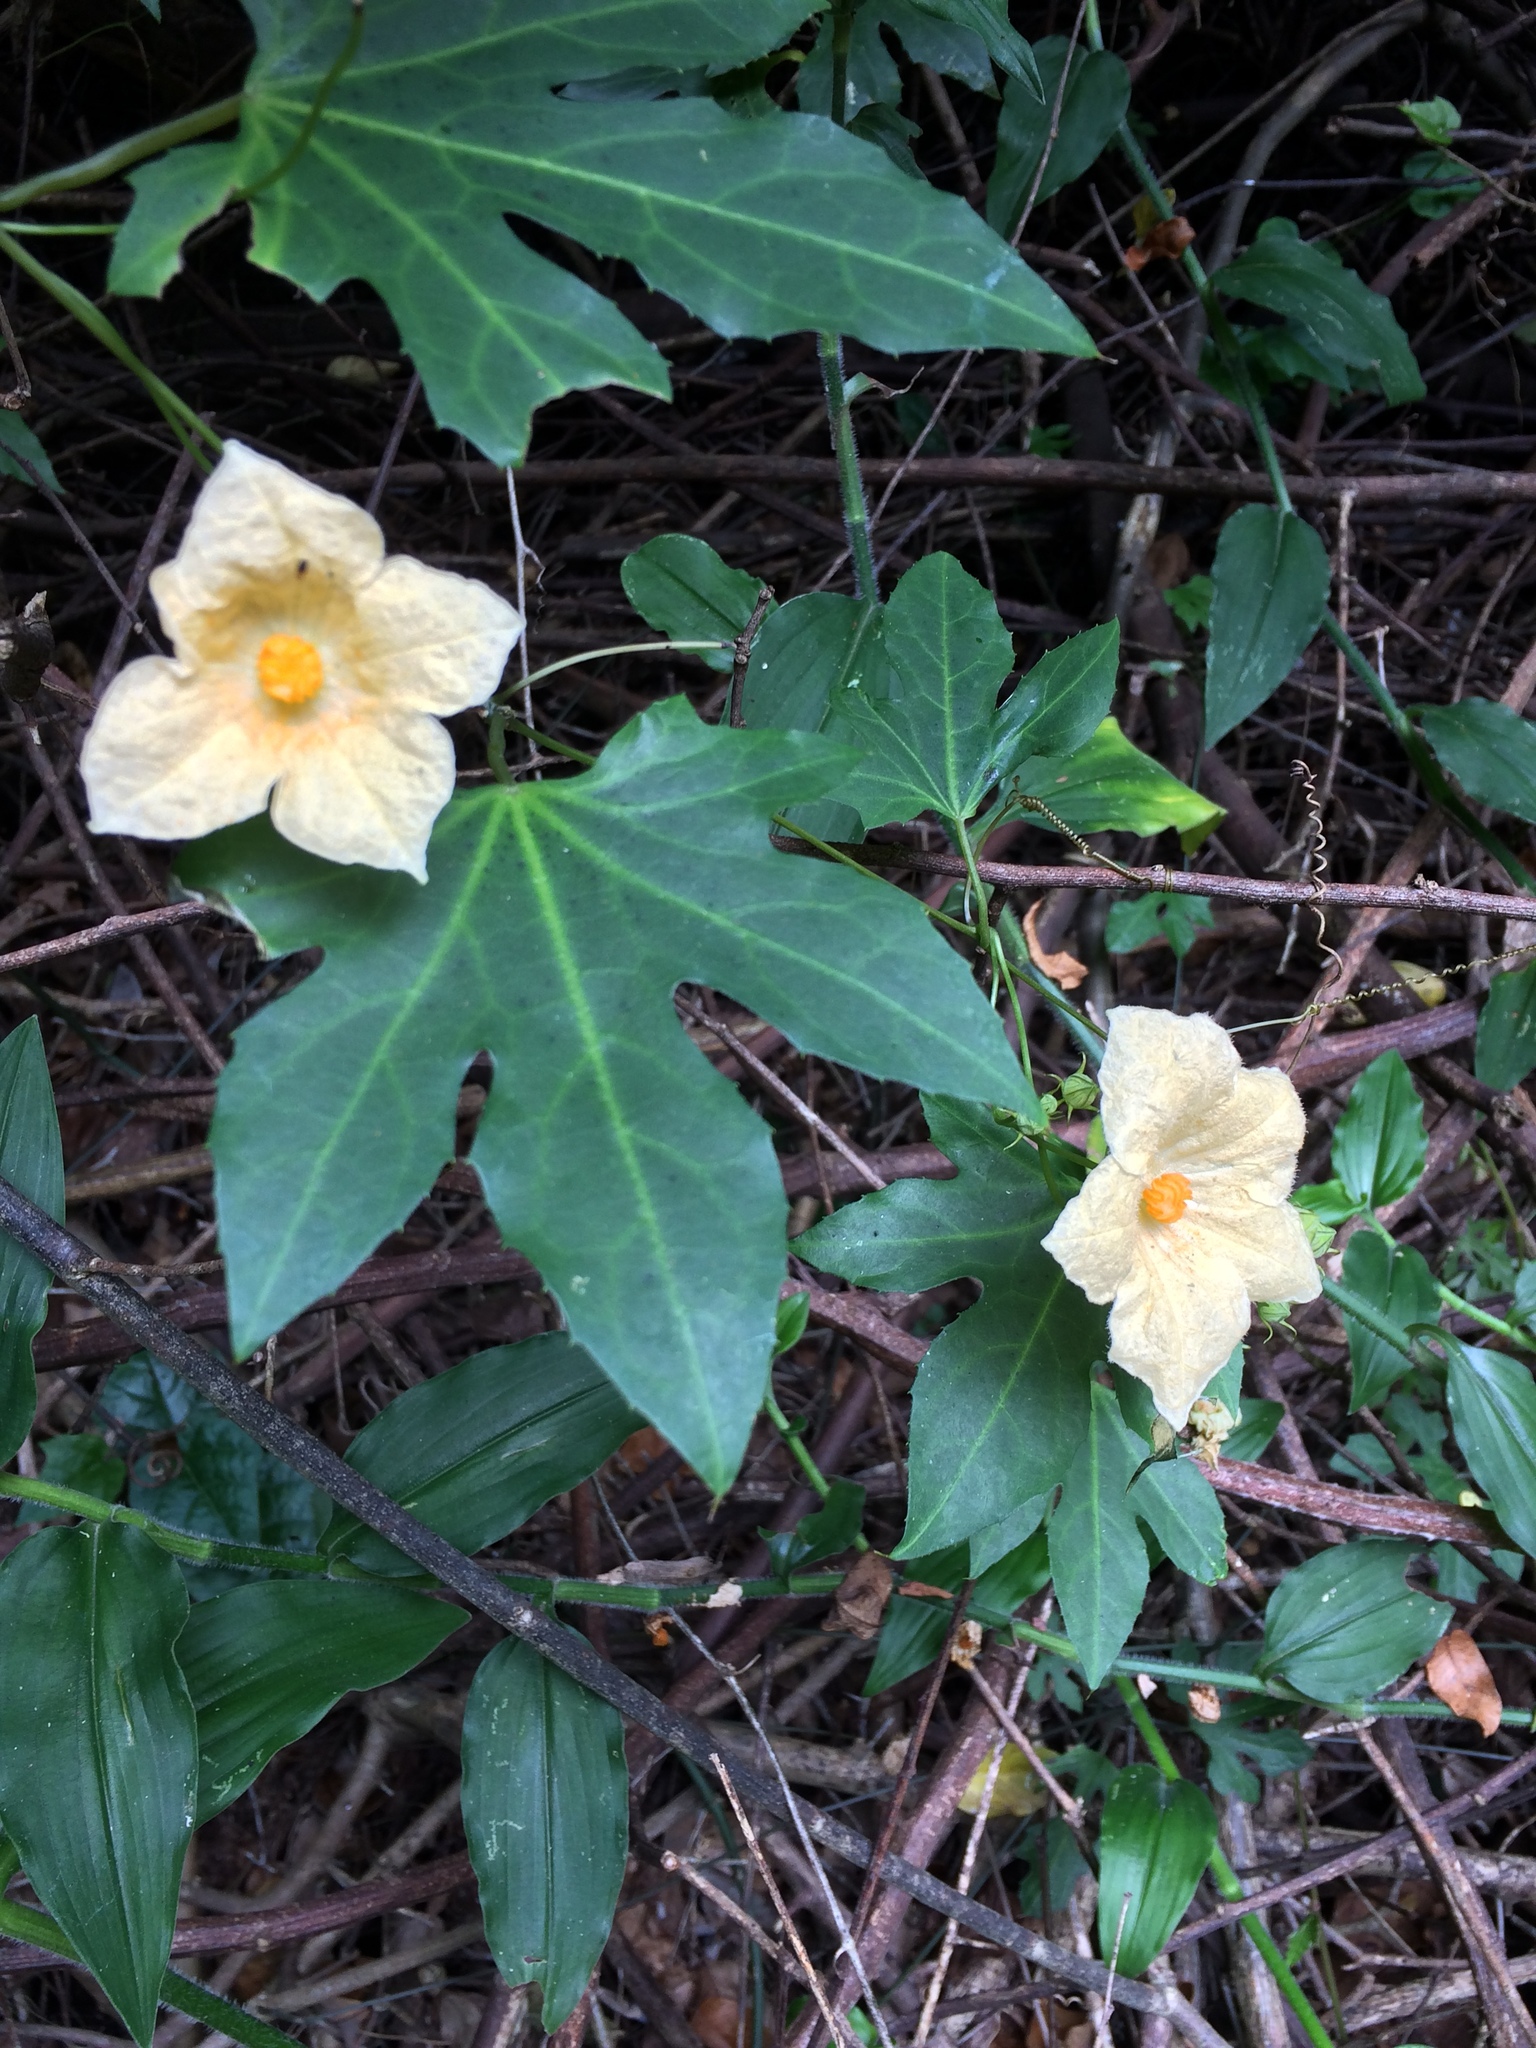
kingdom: Plantae
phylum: Tracheophyta
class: Magnoliopsida
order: Cucurbitales
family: Cucurbitaceae
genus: Coccinia
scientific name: Coccinia palmata
